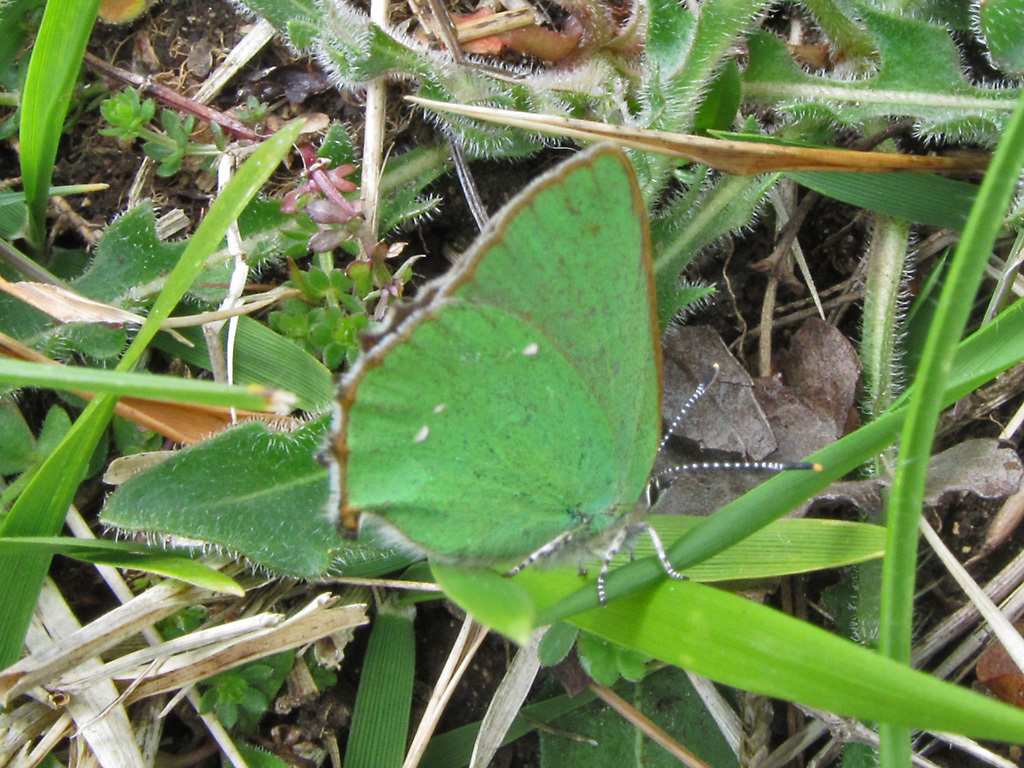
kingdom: Animalia
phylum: Arthropoda
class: Insecta
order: Lepidoptera
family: Lycaenidae
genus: Callophrys
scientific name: Callophrys rubi
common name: Green hairstreak
